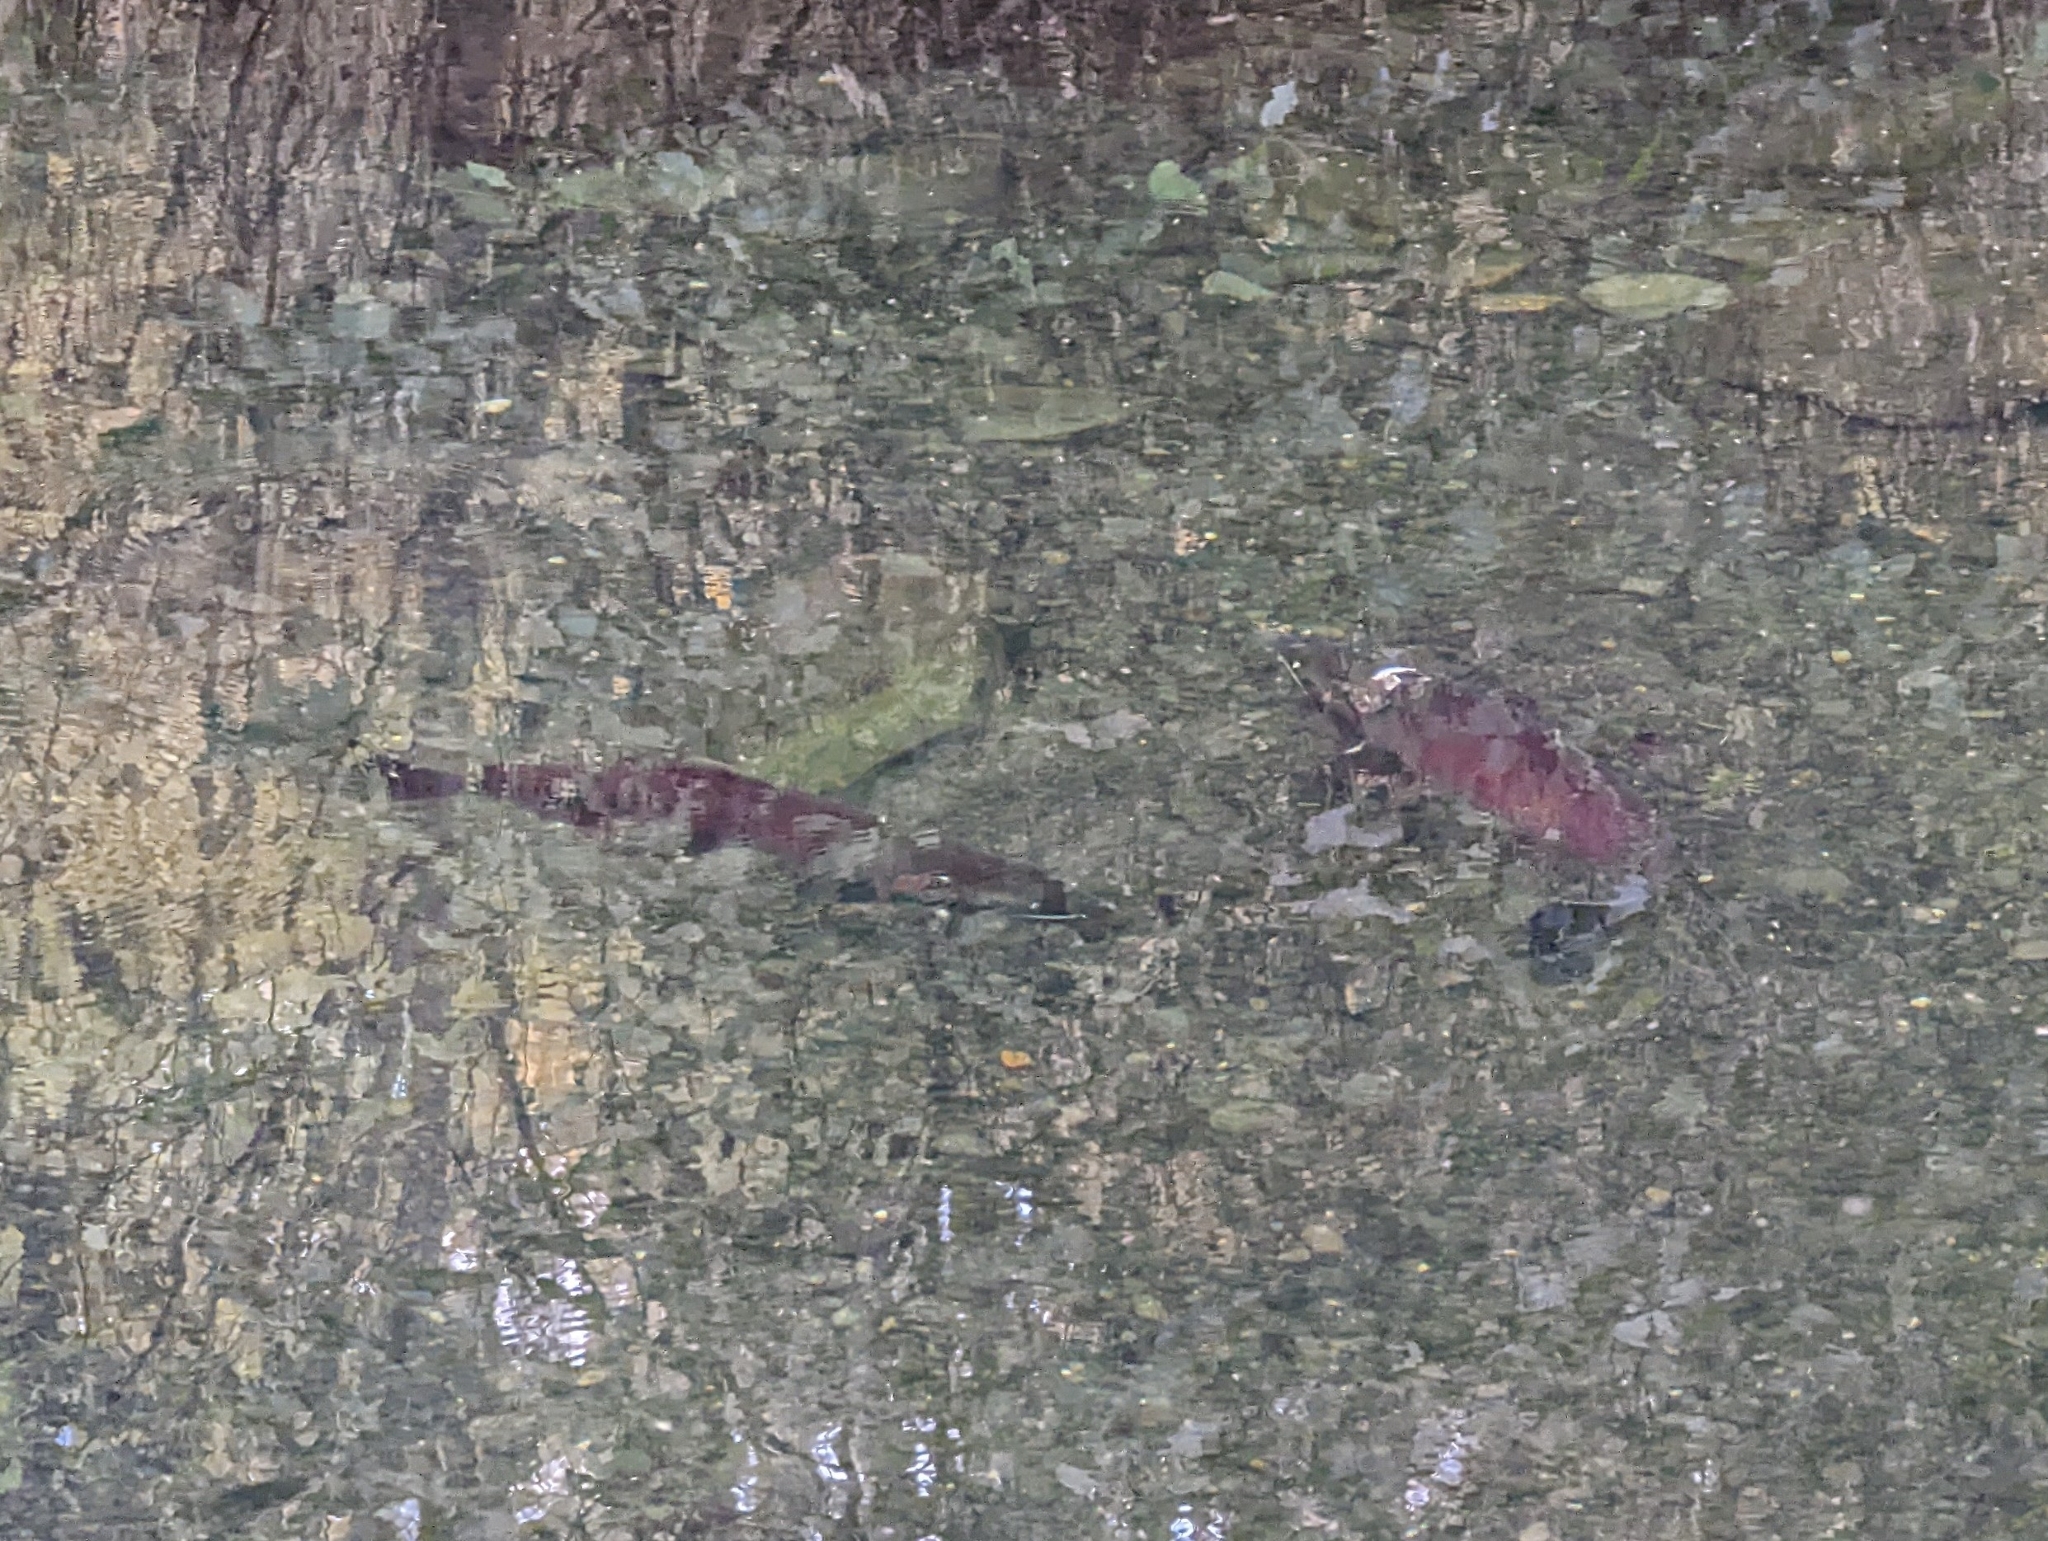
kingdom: Animalia
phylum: Chordata
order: Salmoniformes
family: Salmonidae
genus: Oncorhynchus
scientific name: Oncorhynchus kisutch
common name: Coho salmon
